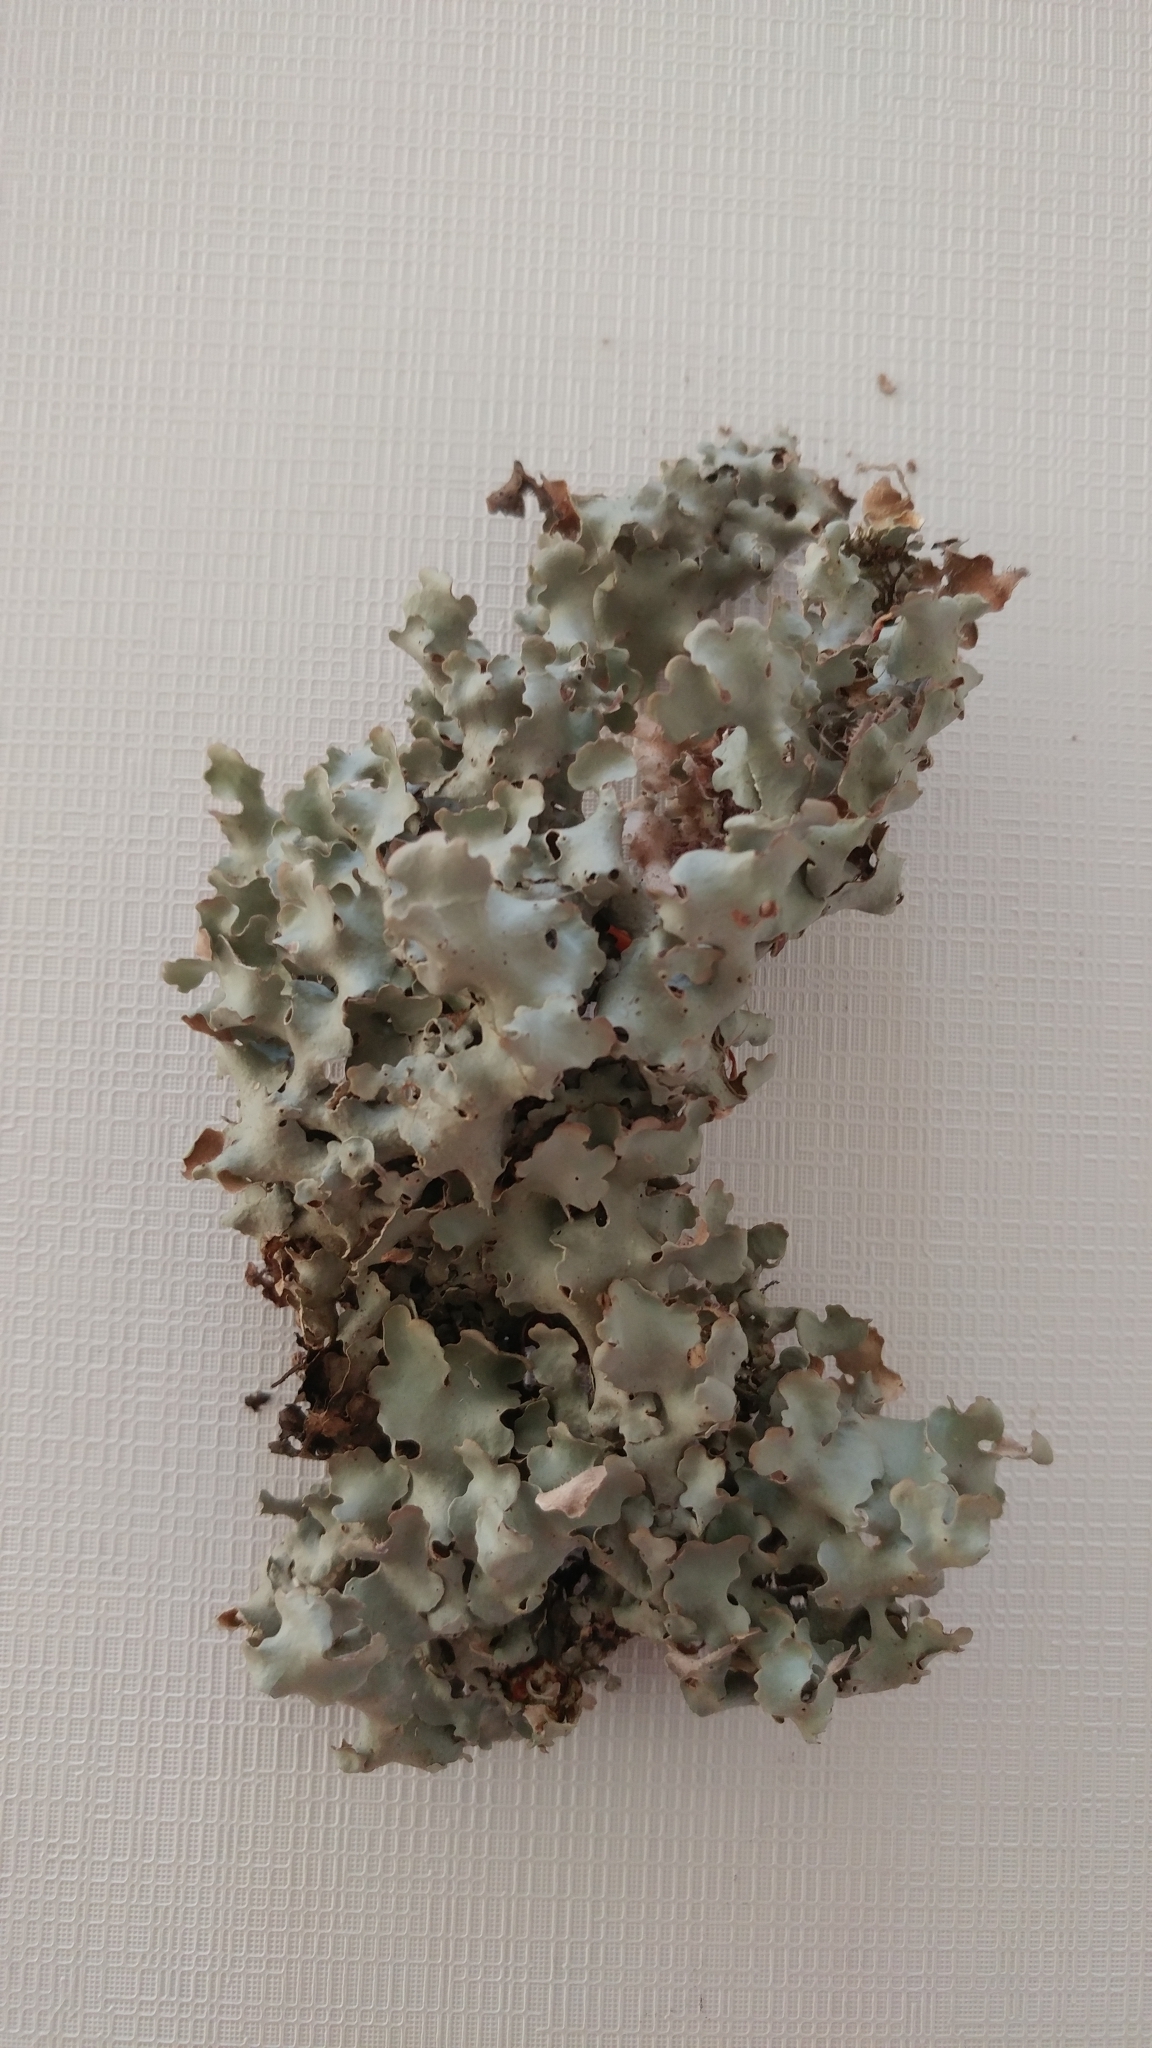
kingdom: Fungi
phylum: Ascomycota
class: Lecanoromycetes
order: Peltigerales
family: Lobariaceae
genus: Ricasolia
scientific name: Ricasolia quercizans
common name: Smooth lungwort
